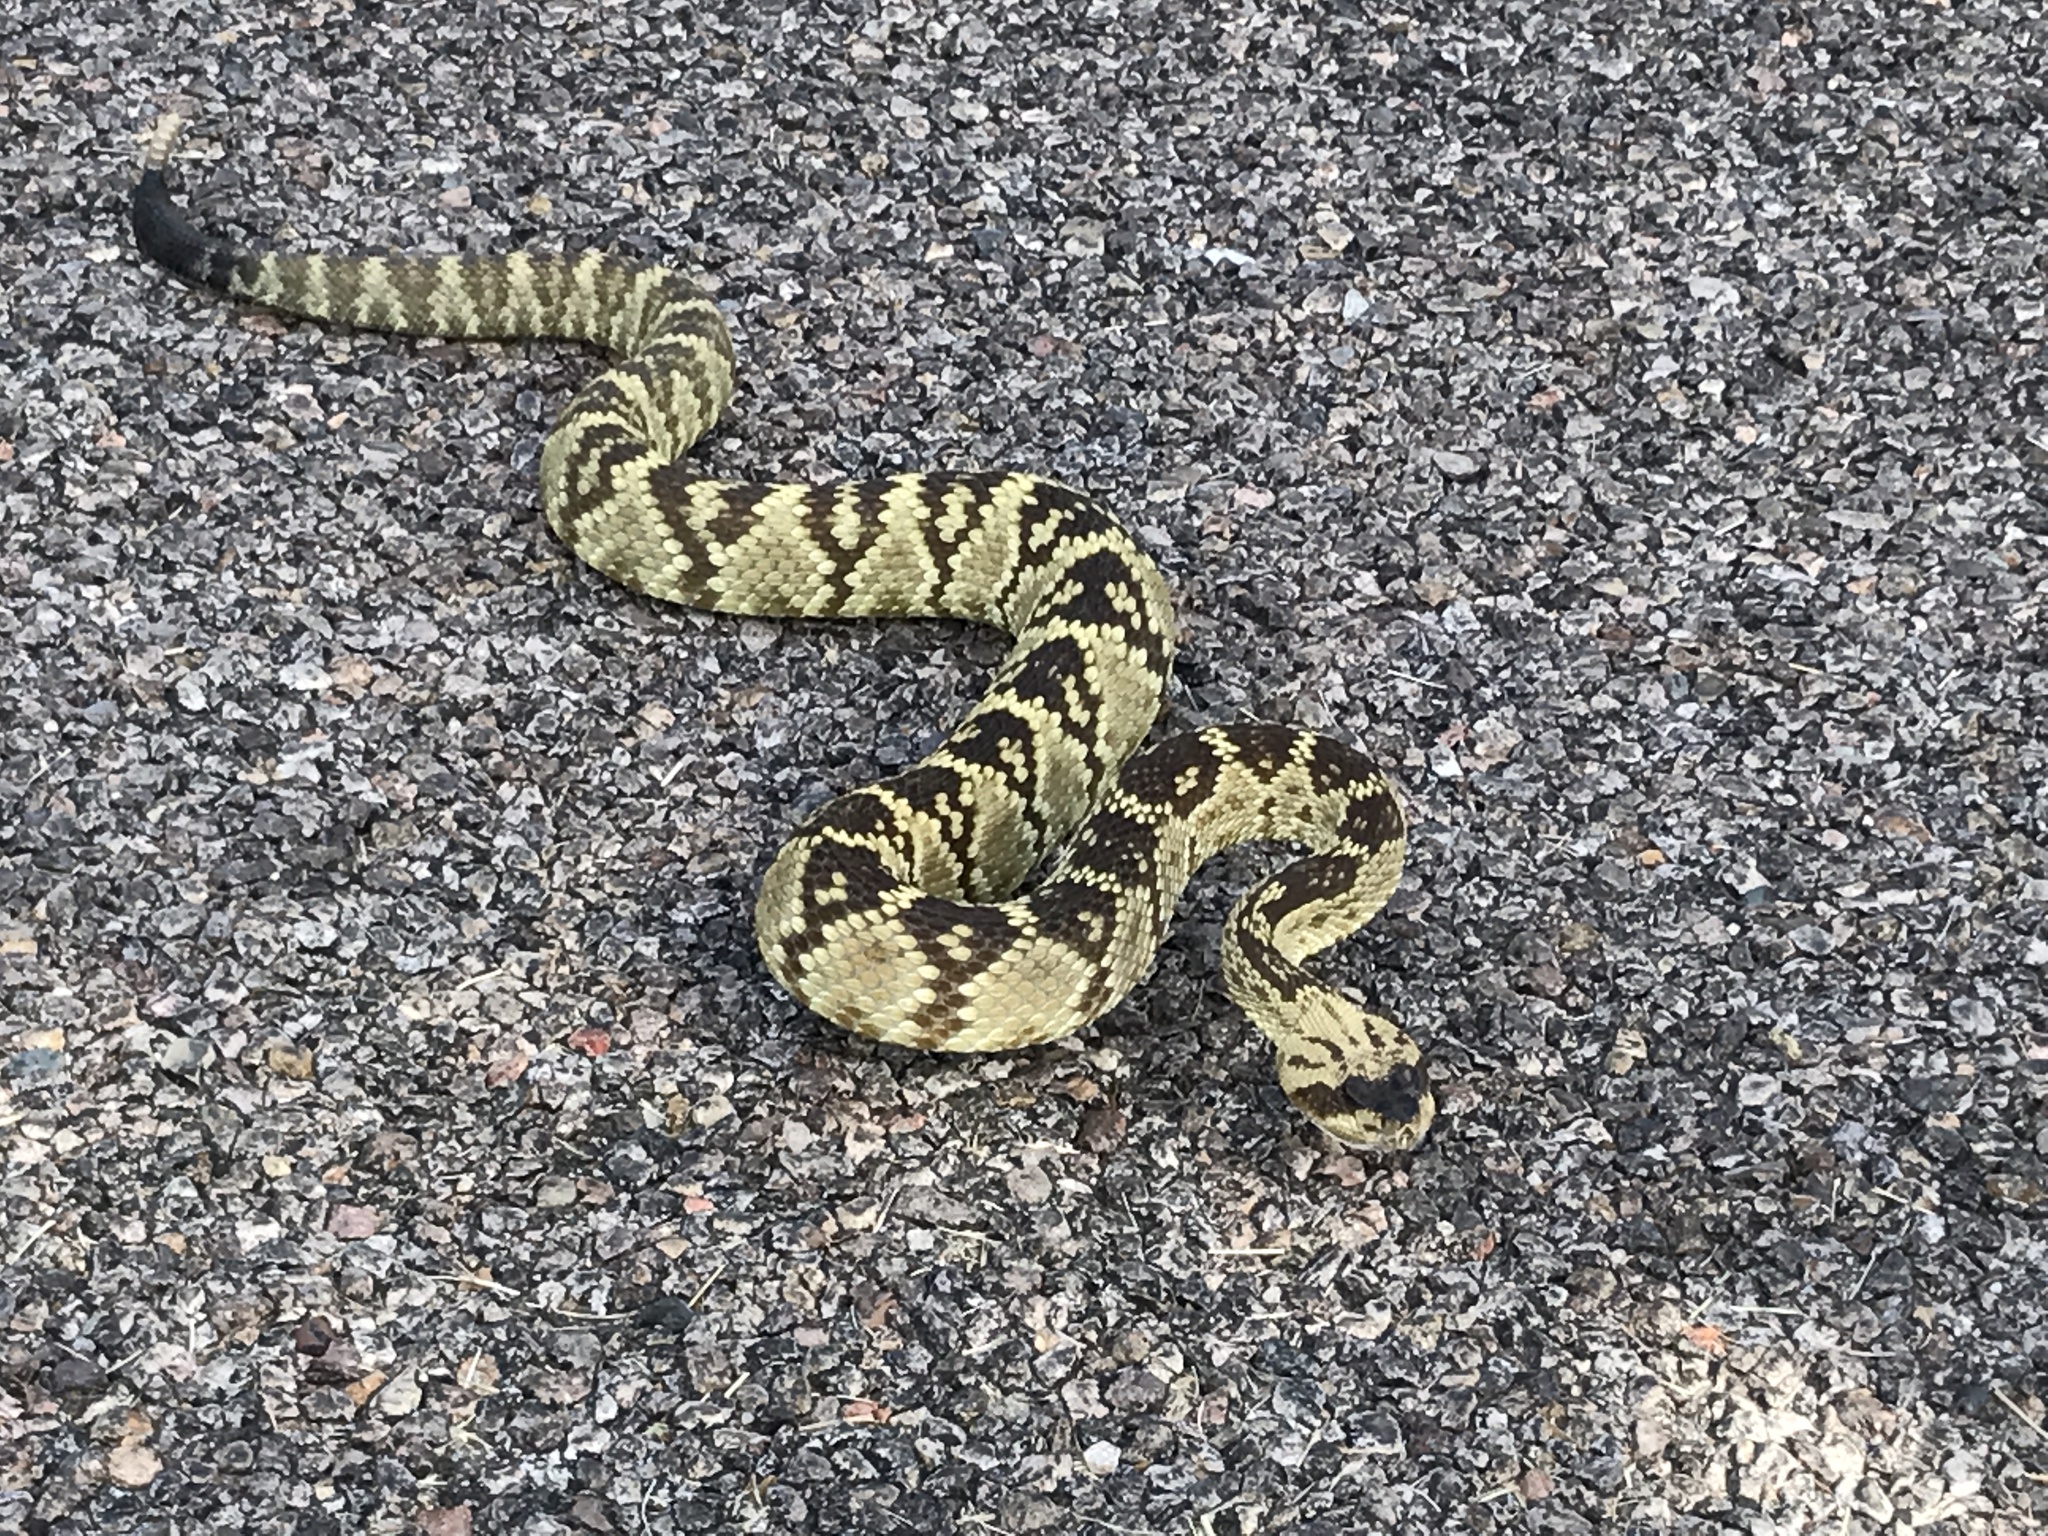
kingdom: Animalia
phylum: Chordata
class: Squamata
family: Viperidae
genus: Crotalus
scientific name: Crotalus molossus
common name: Black tailed rattlesnake
